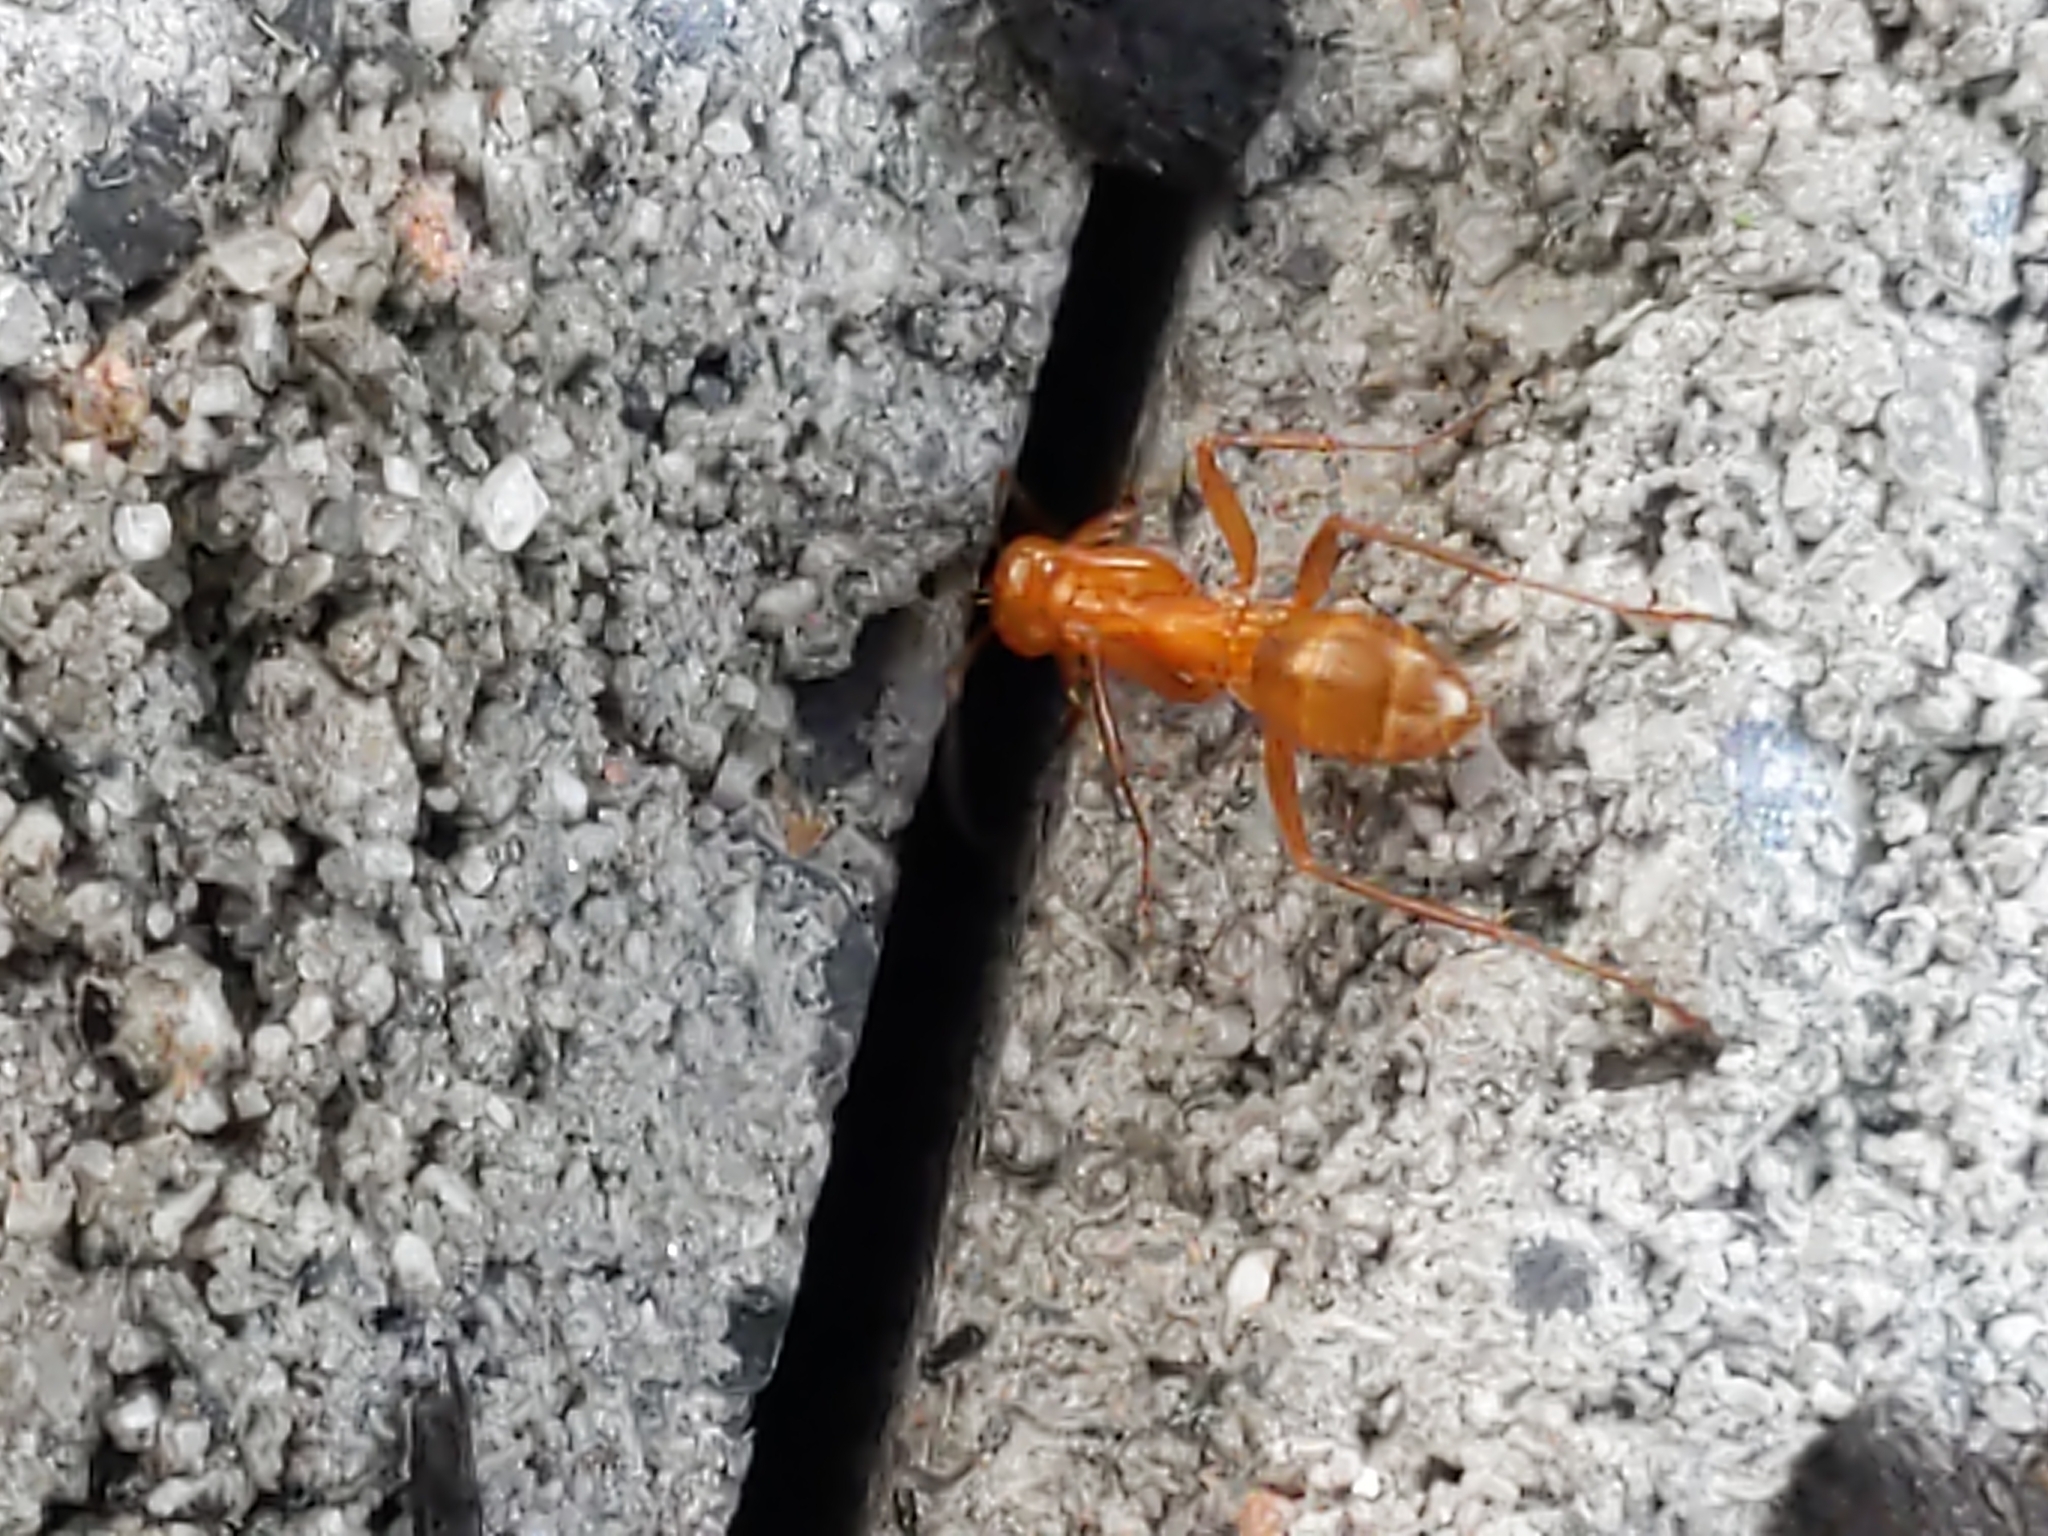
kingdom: Animalia
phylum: Arthropoda
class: Insecta
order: Hymenoptera
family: Formicidae
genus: Formica
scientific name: Formica
